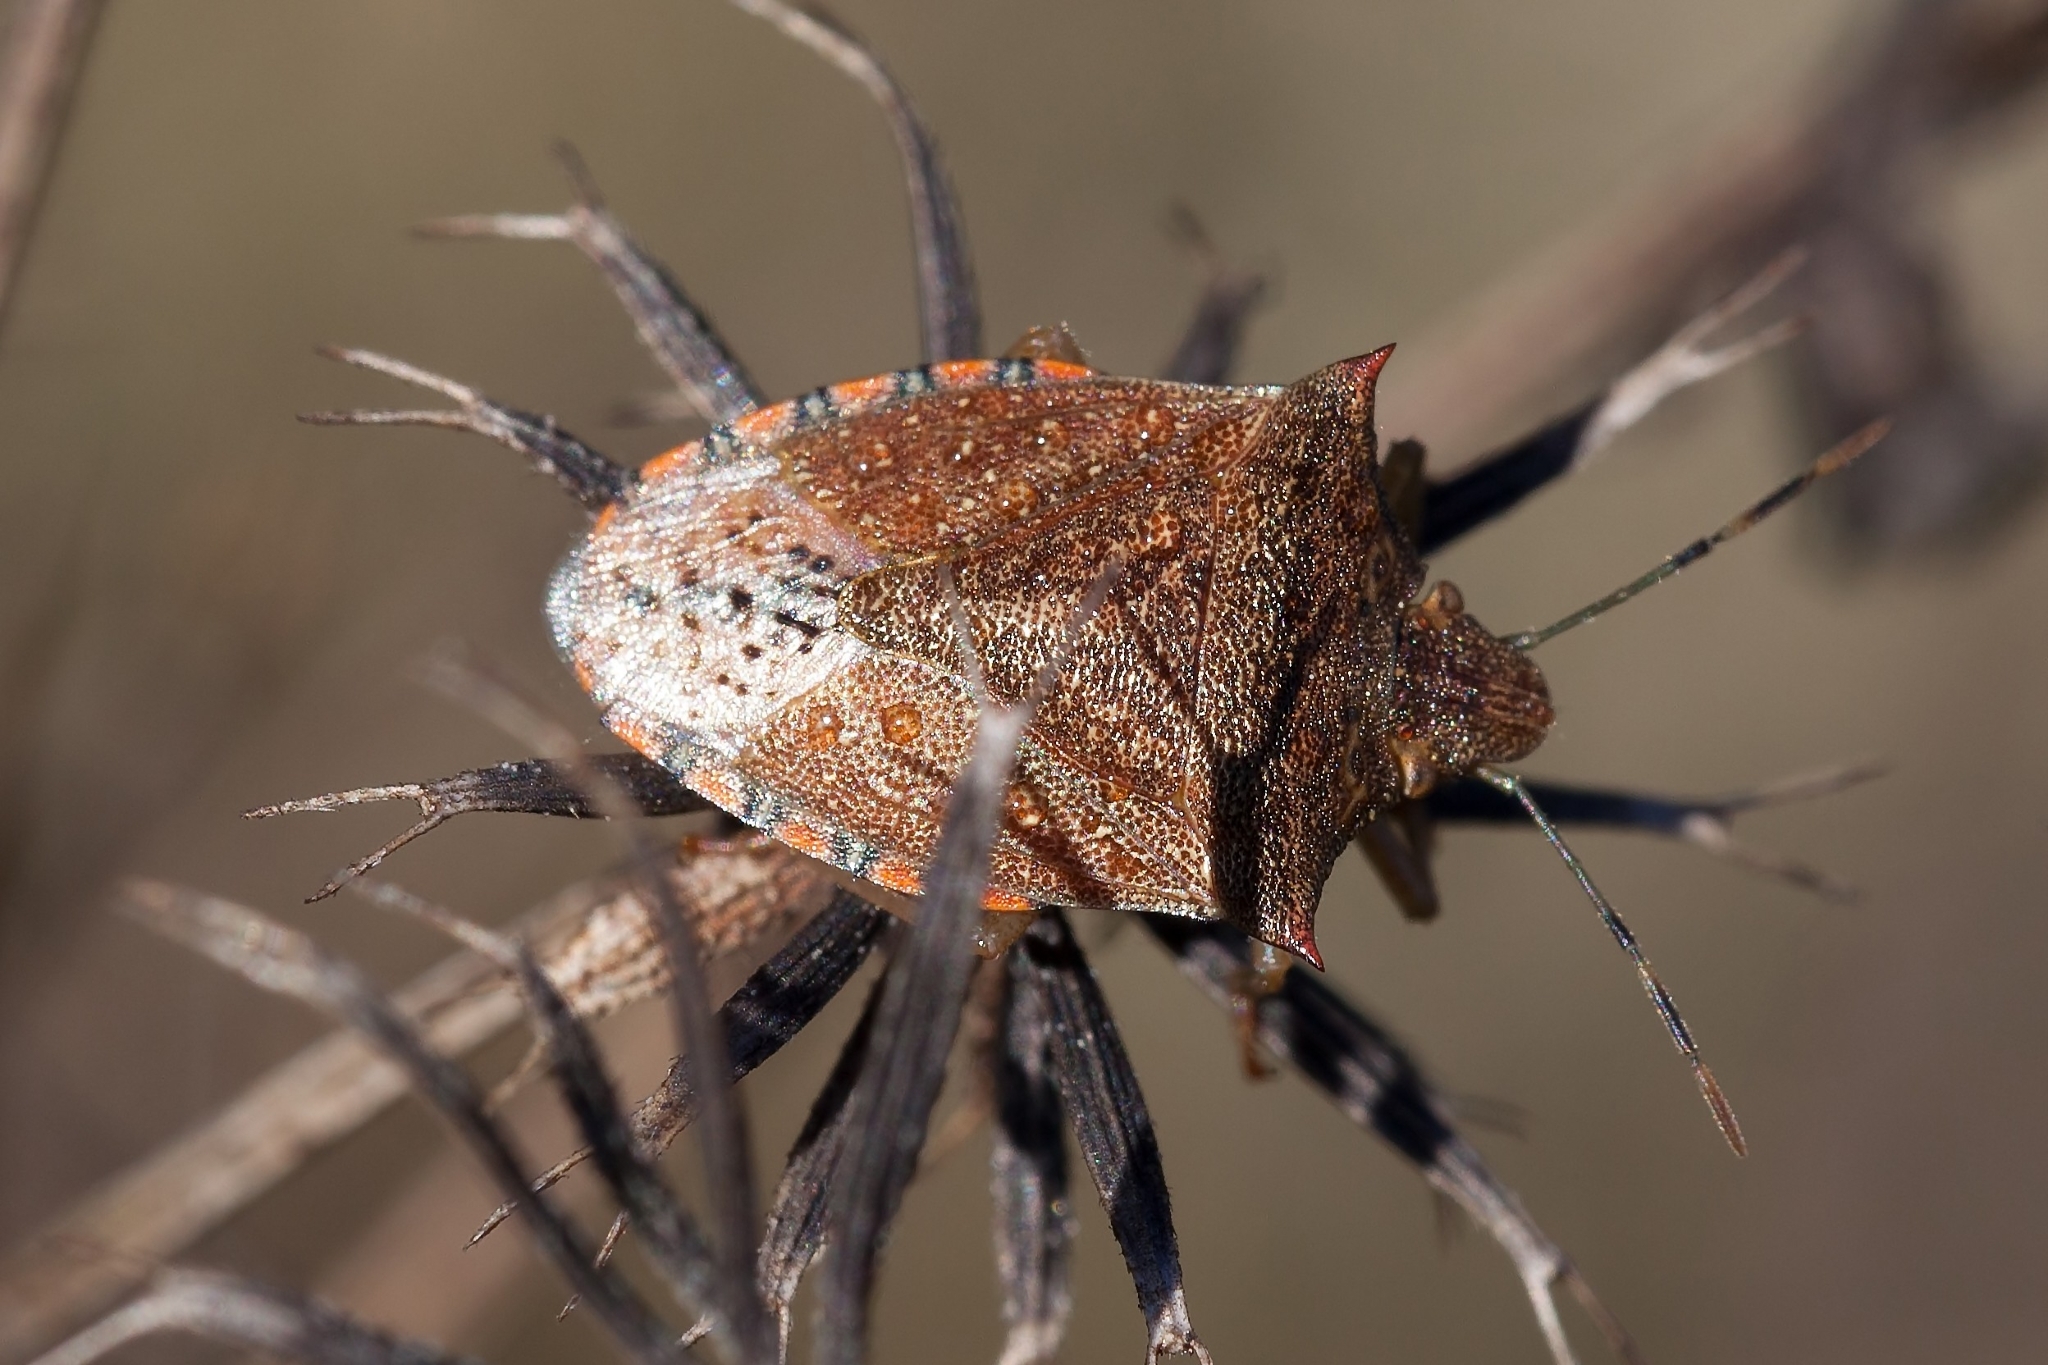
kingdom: Animalia
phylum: Arthropoda
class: Insecta
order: Hemiptera
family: Pentatomidae
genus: Thyanta
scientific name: Thyanta perditor
